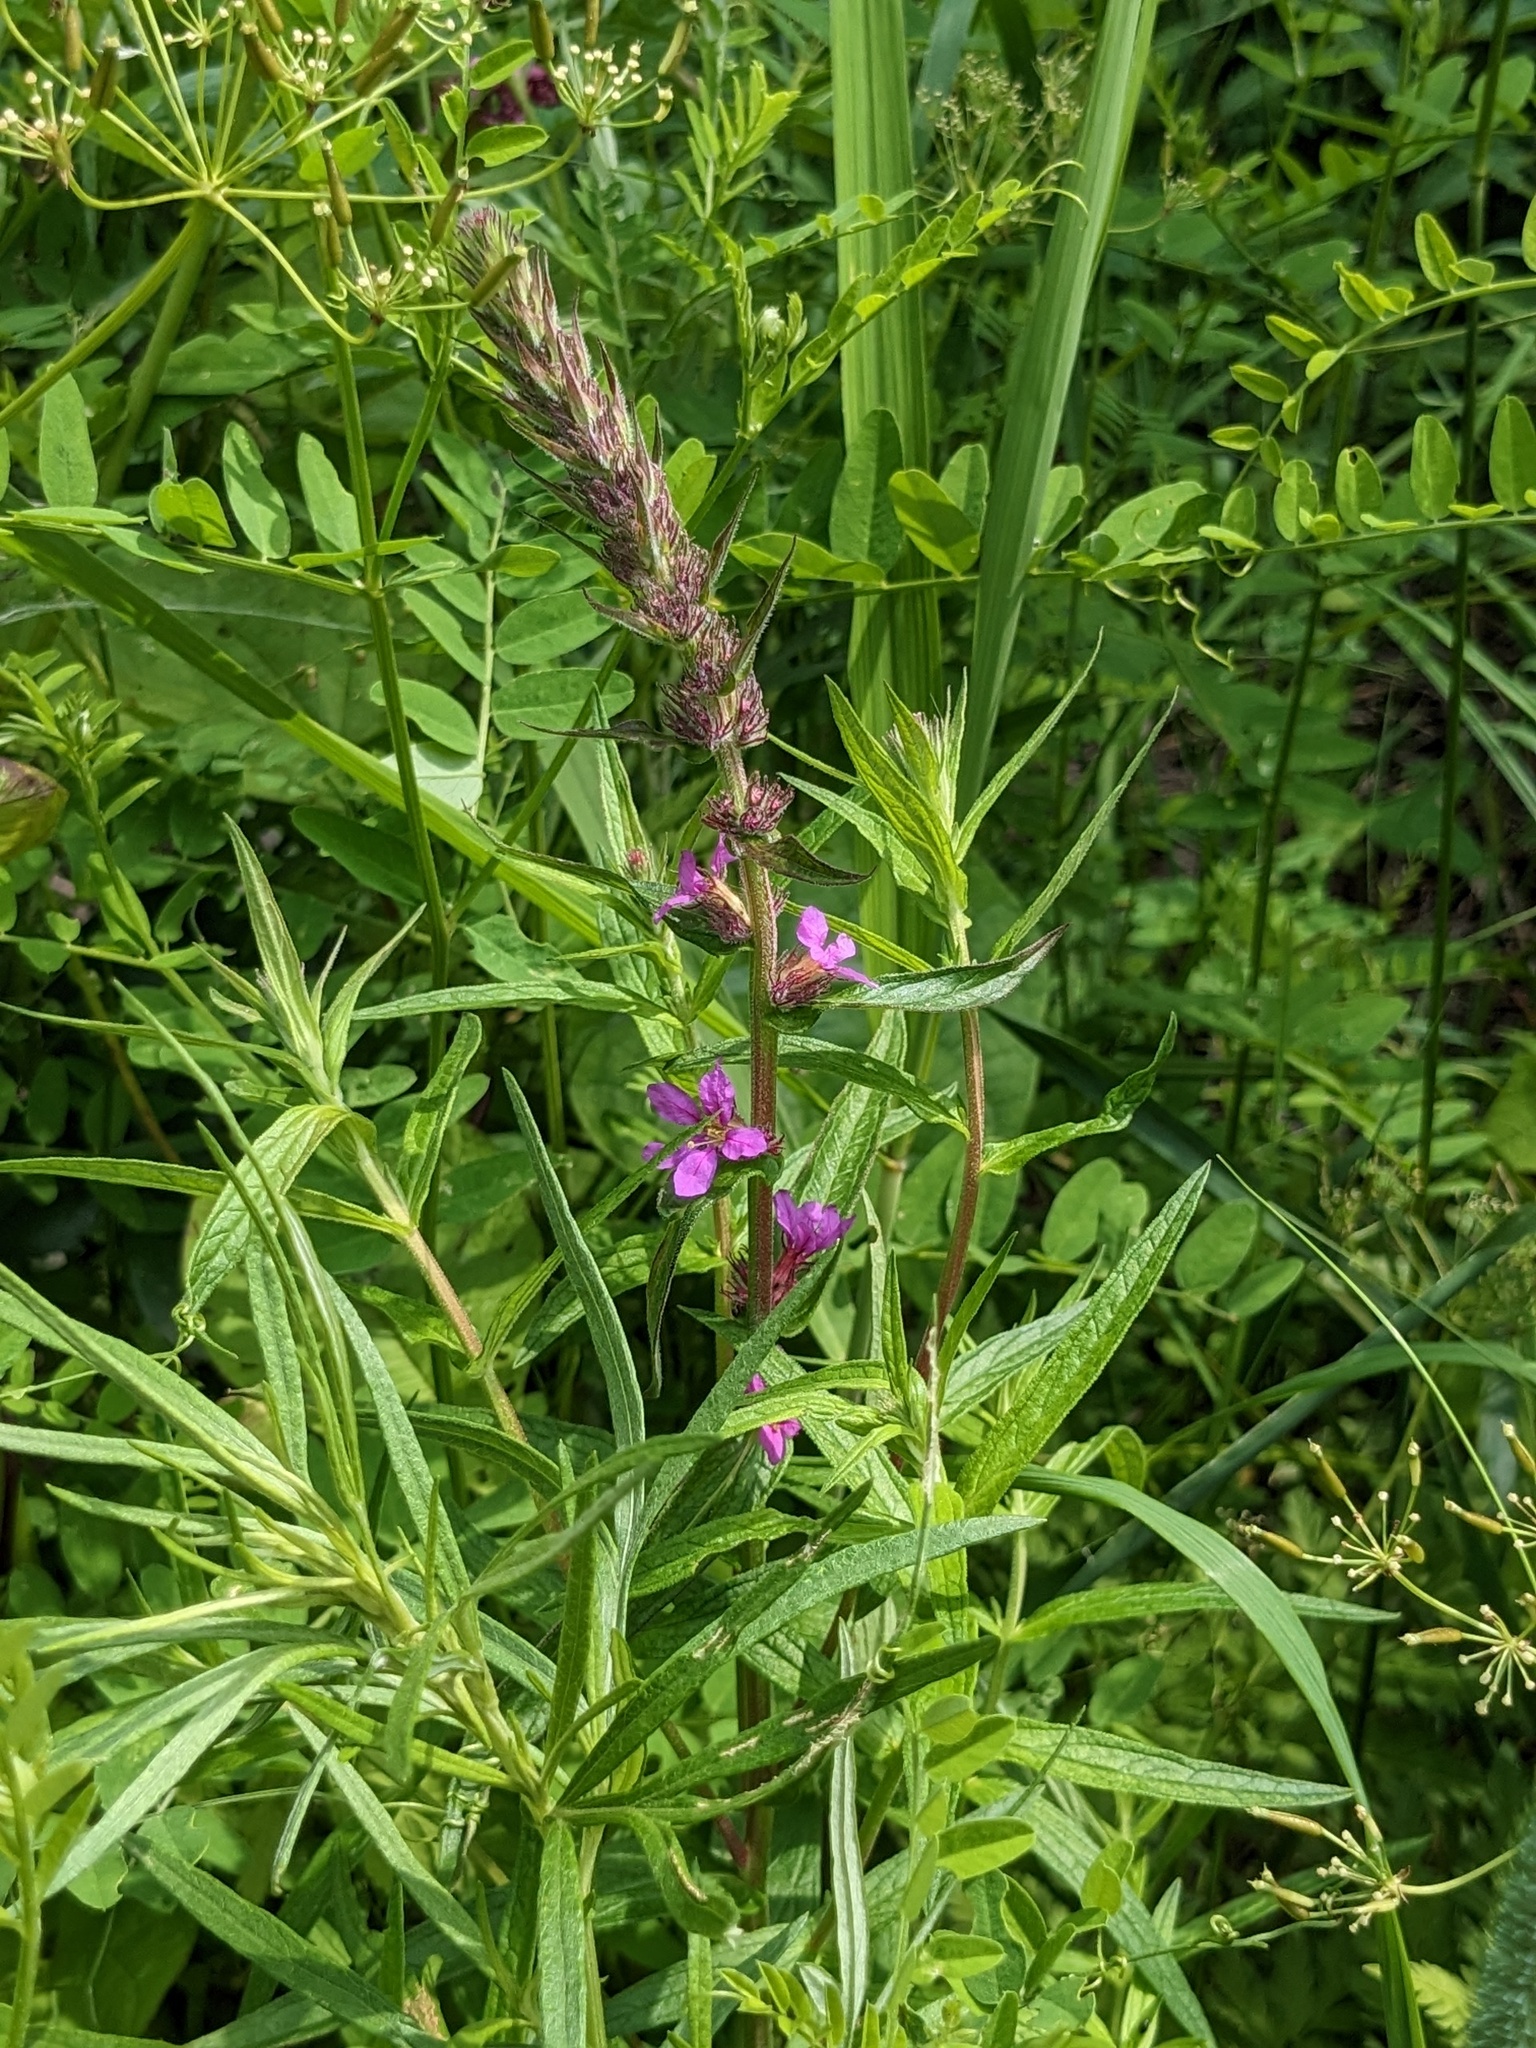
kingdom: Plantae
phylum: Tracheophyta
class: Magnoliopsida
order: Myrtales
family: Lythraceae
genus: Lythrum
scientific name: Lythrum salicaria
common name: Purple loosestrife
